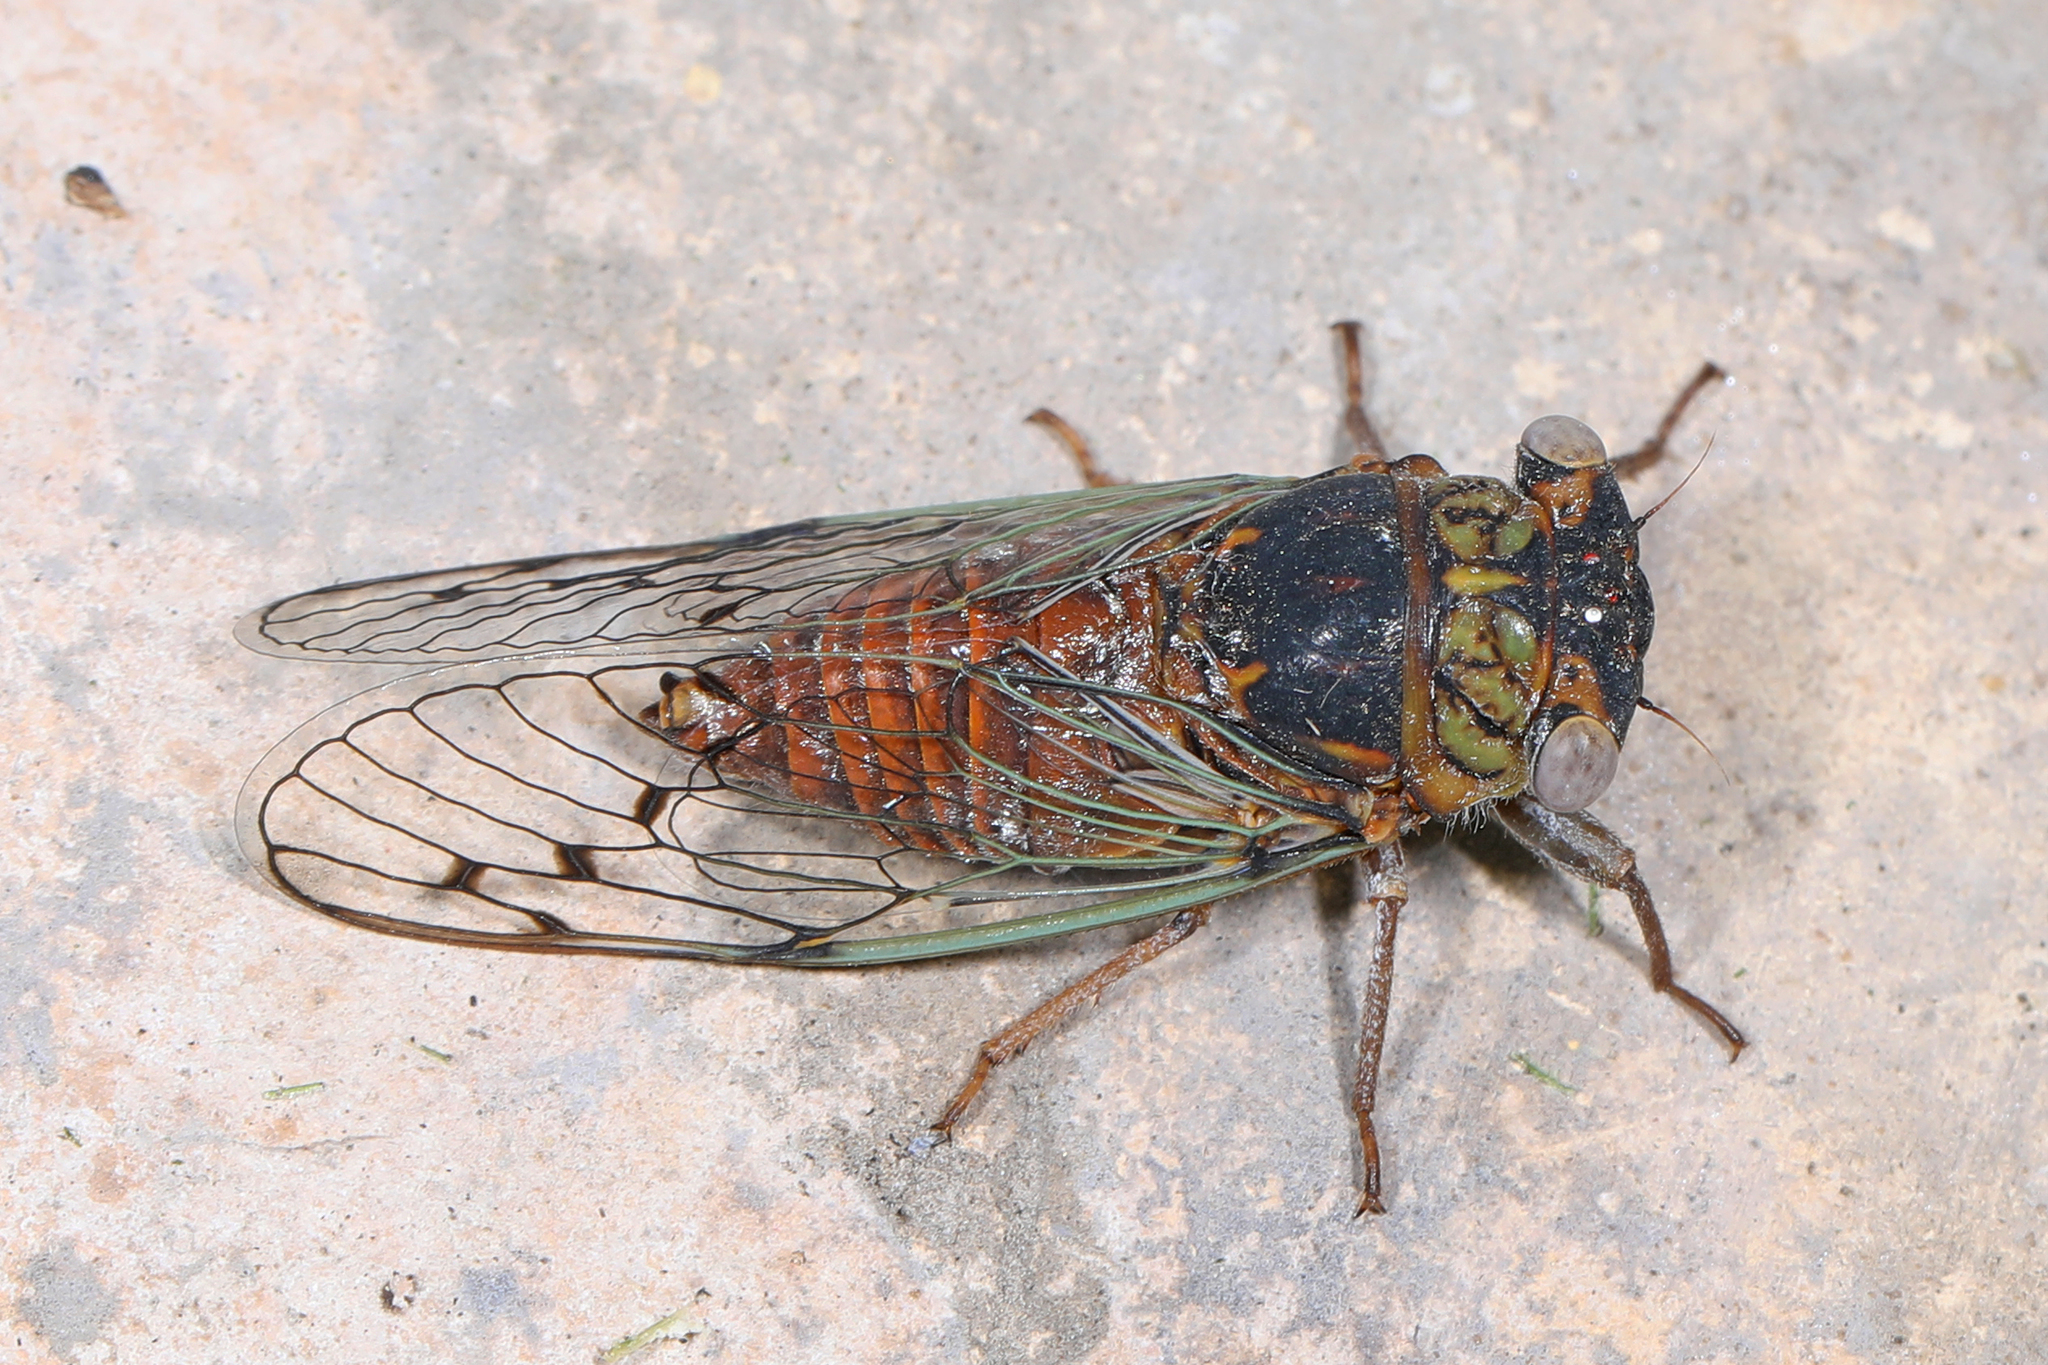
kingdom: Animalia
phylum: Arthropoda
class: Insecta
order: Hemiptera
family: Cicadidae
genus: Pacarina
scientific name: Pacarina puella
